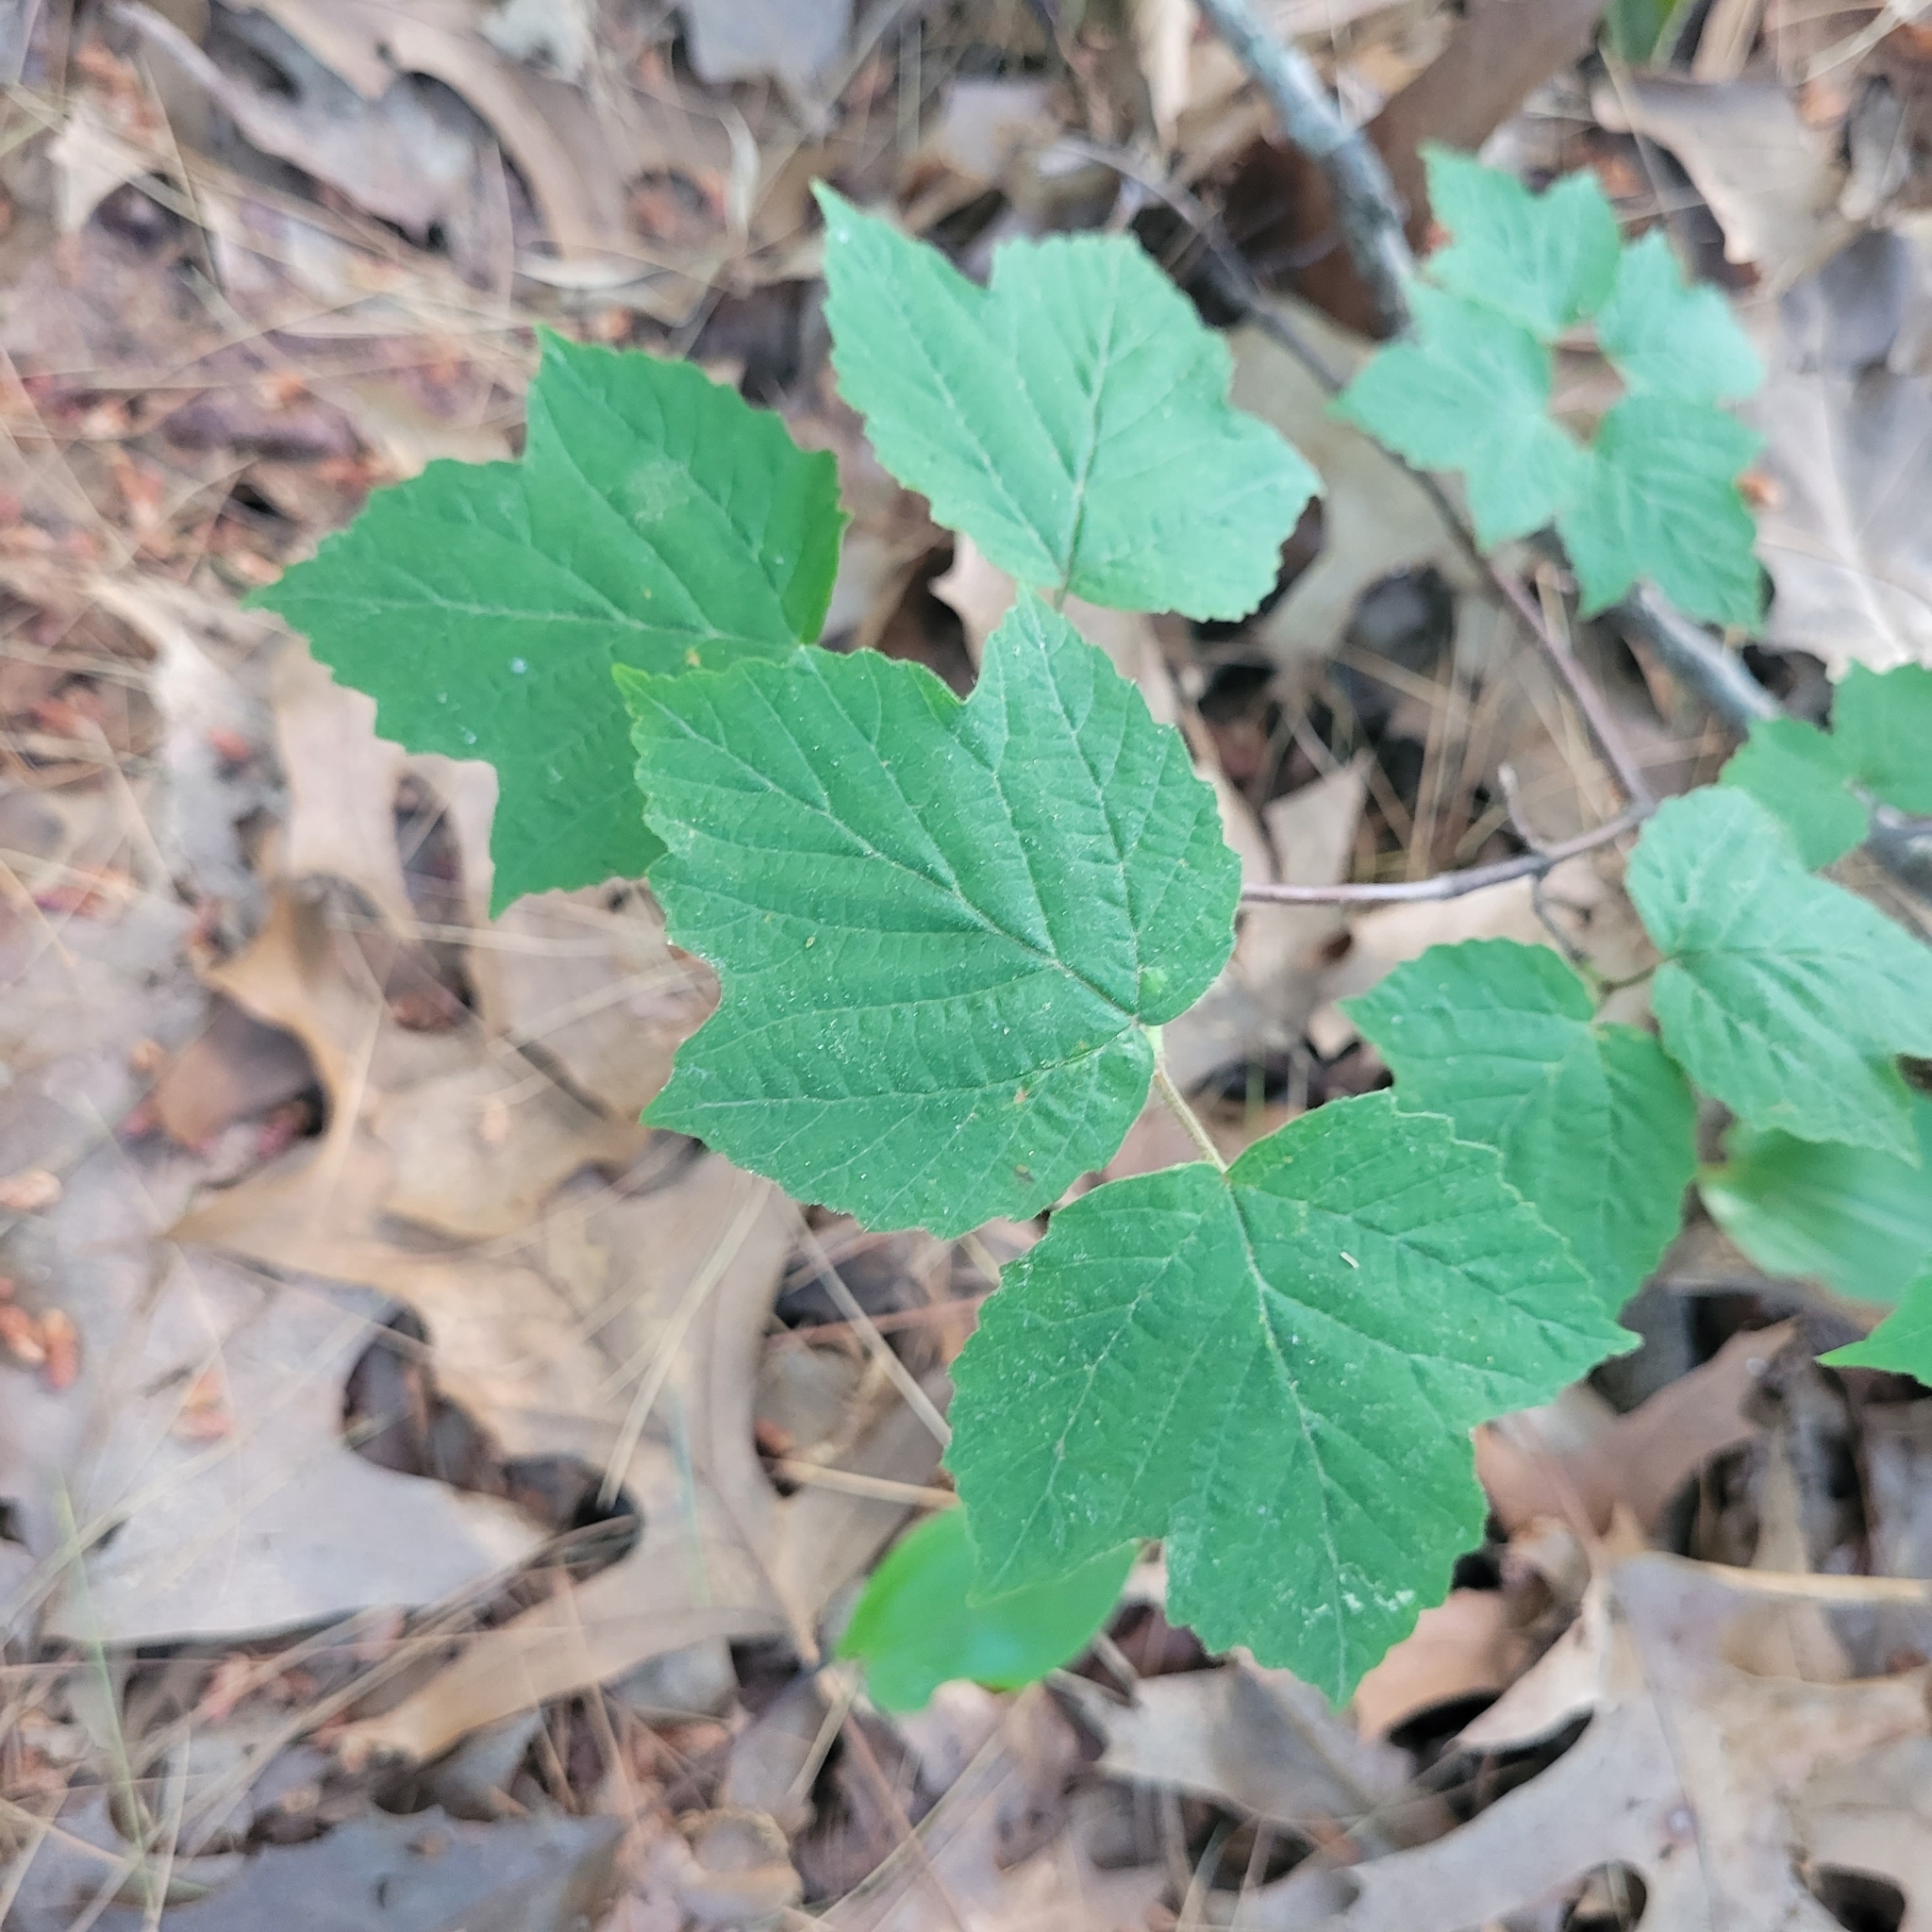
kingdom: Plantae
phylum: Tracheophyta
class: Magnoliopsida
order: Dipsacales
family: Viburnaceae
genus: Viburnum
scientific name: Viburnum acerifolium
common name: Dockmackie
